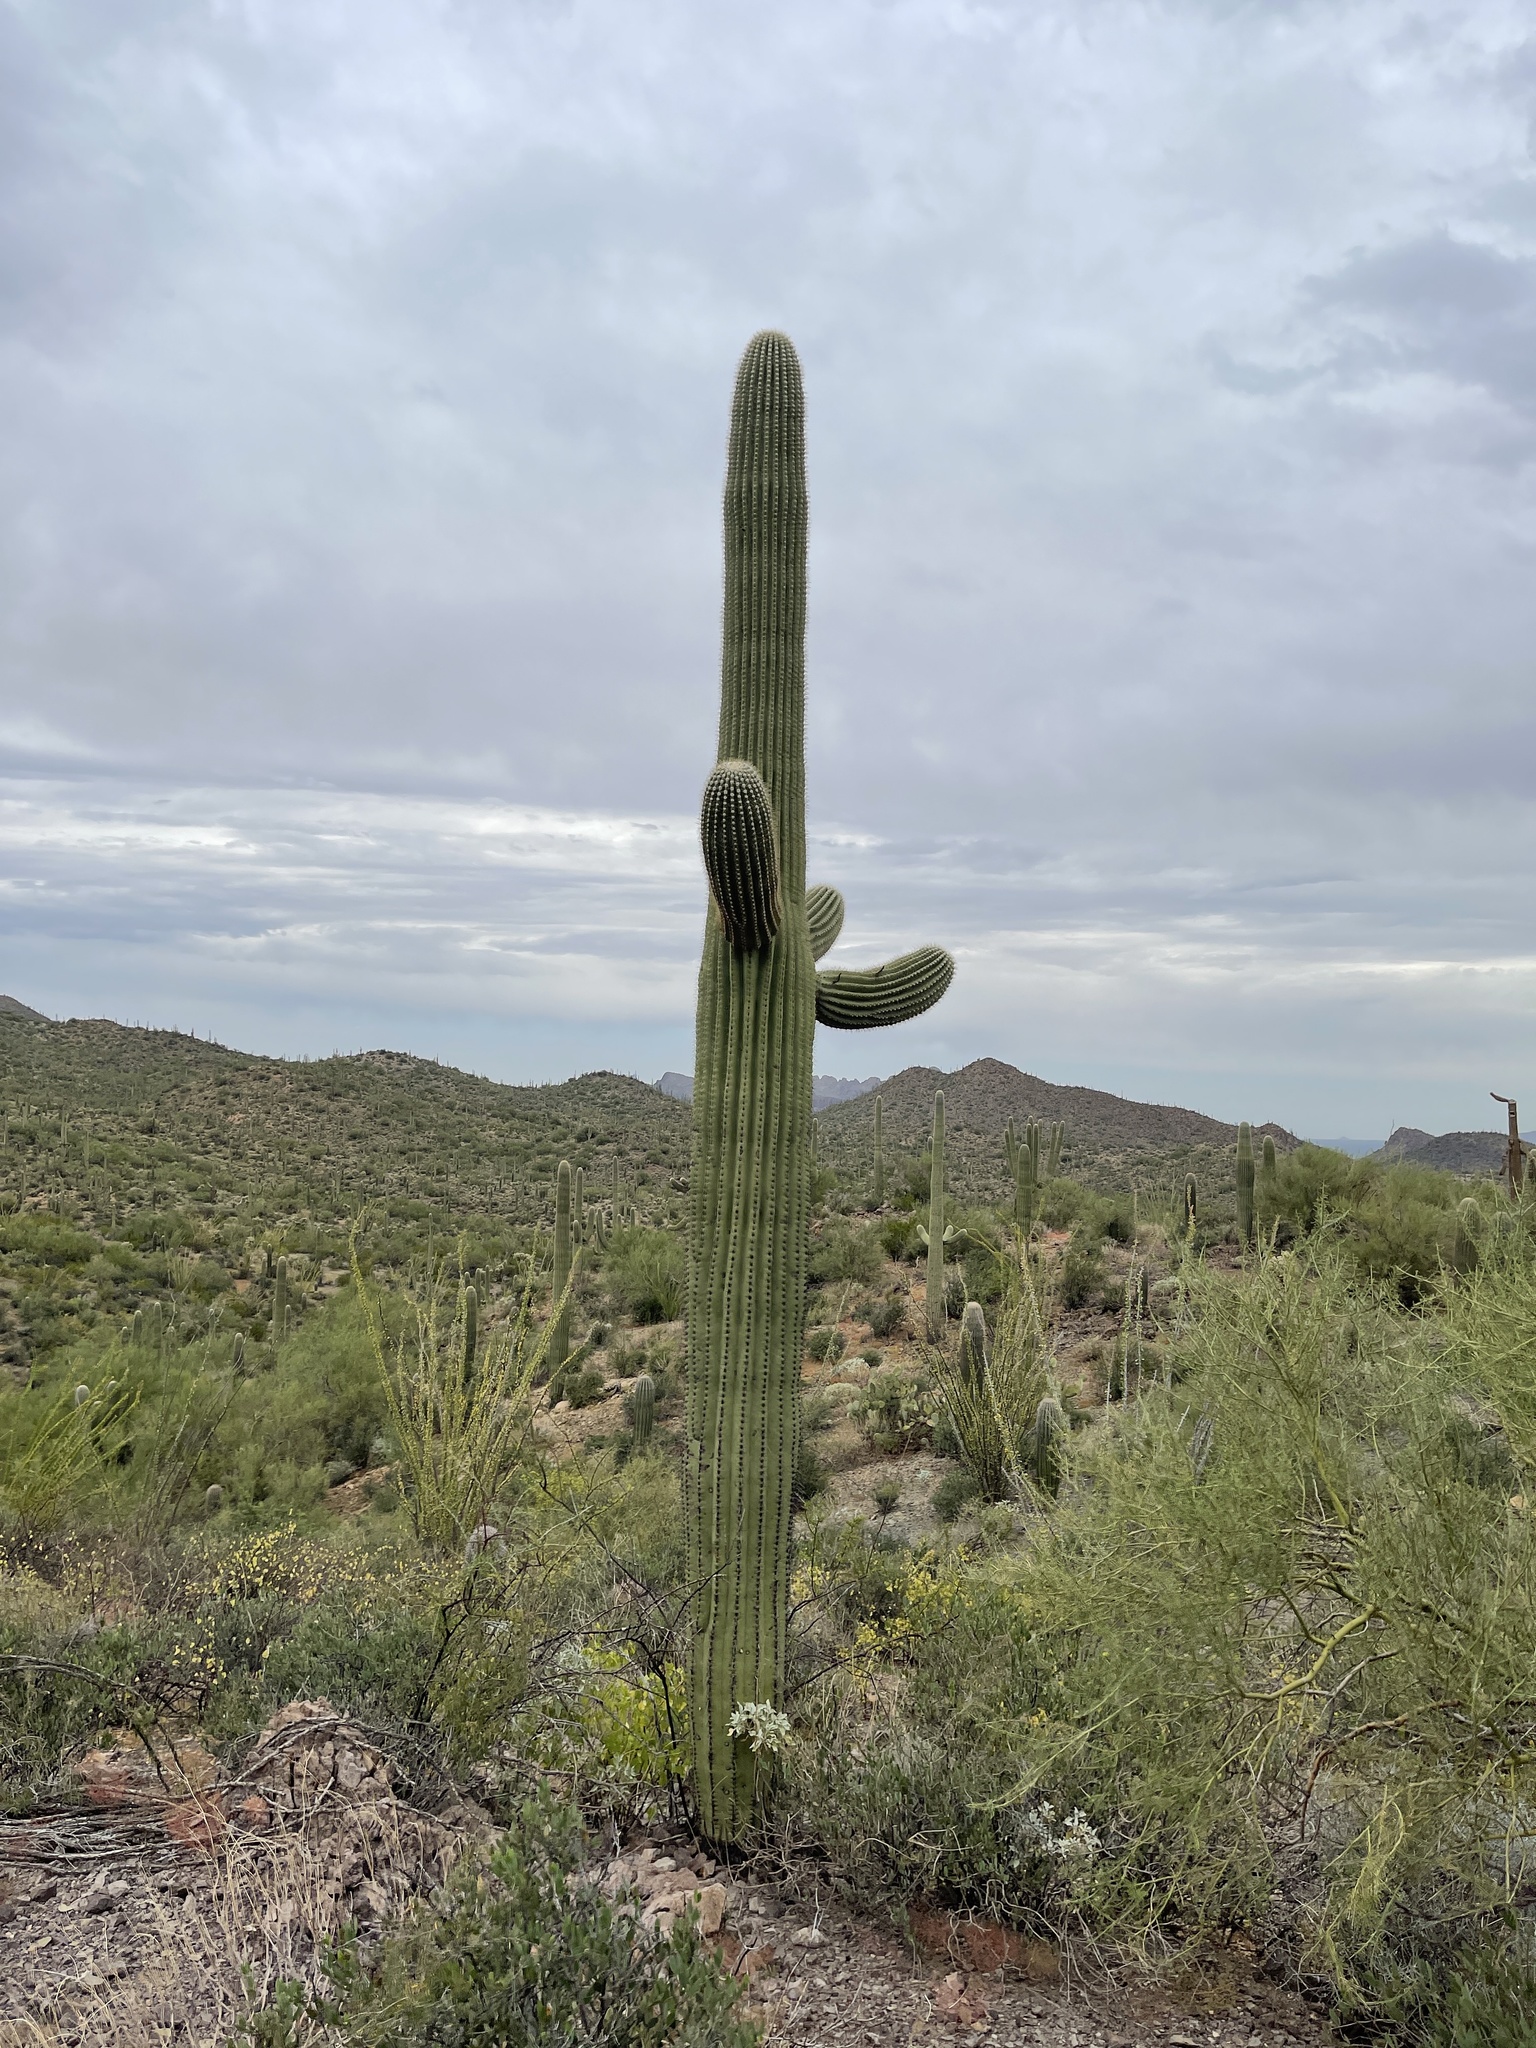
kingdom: Plantae
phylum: Tracheophyta
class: Magnoliopsida
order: Caryophyllales
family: Cactaceae
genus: Carnegiea
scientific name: Carnegiea gigantea
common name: Saguaro
